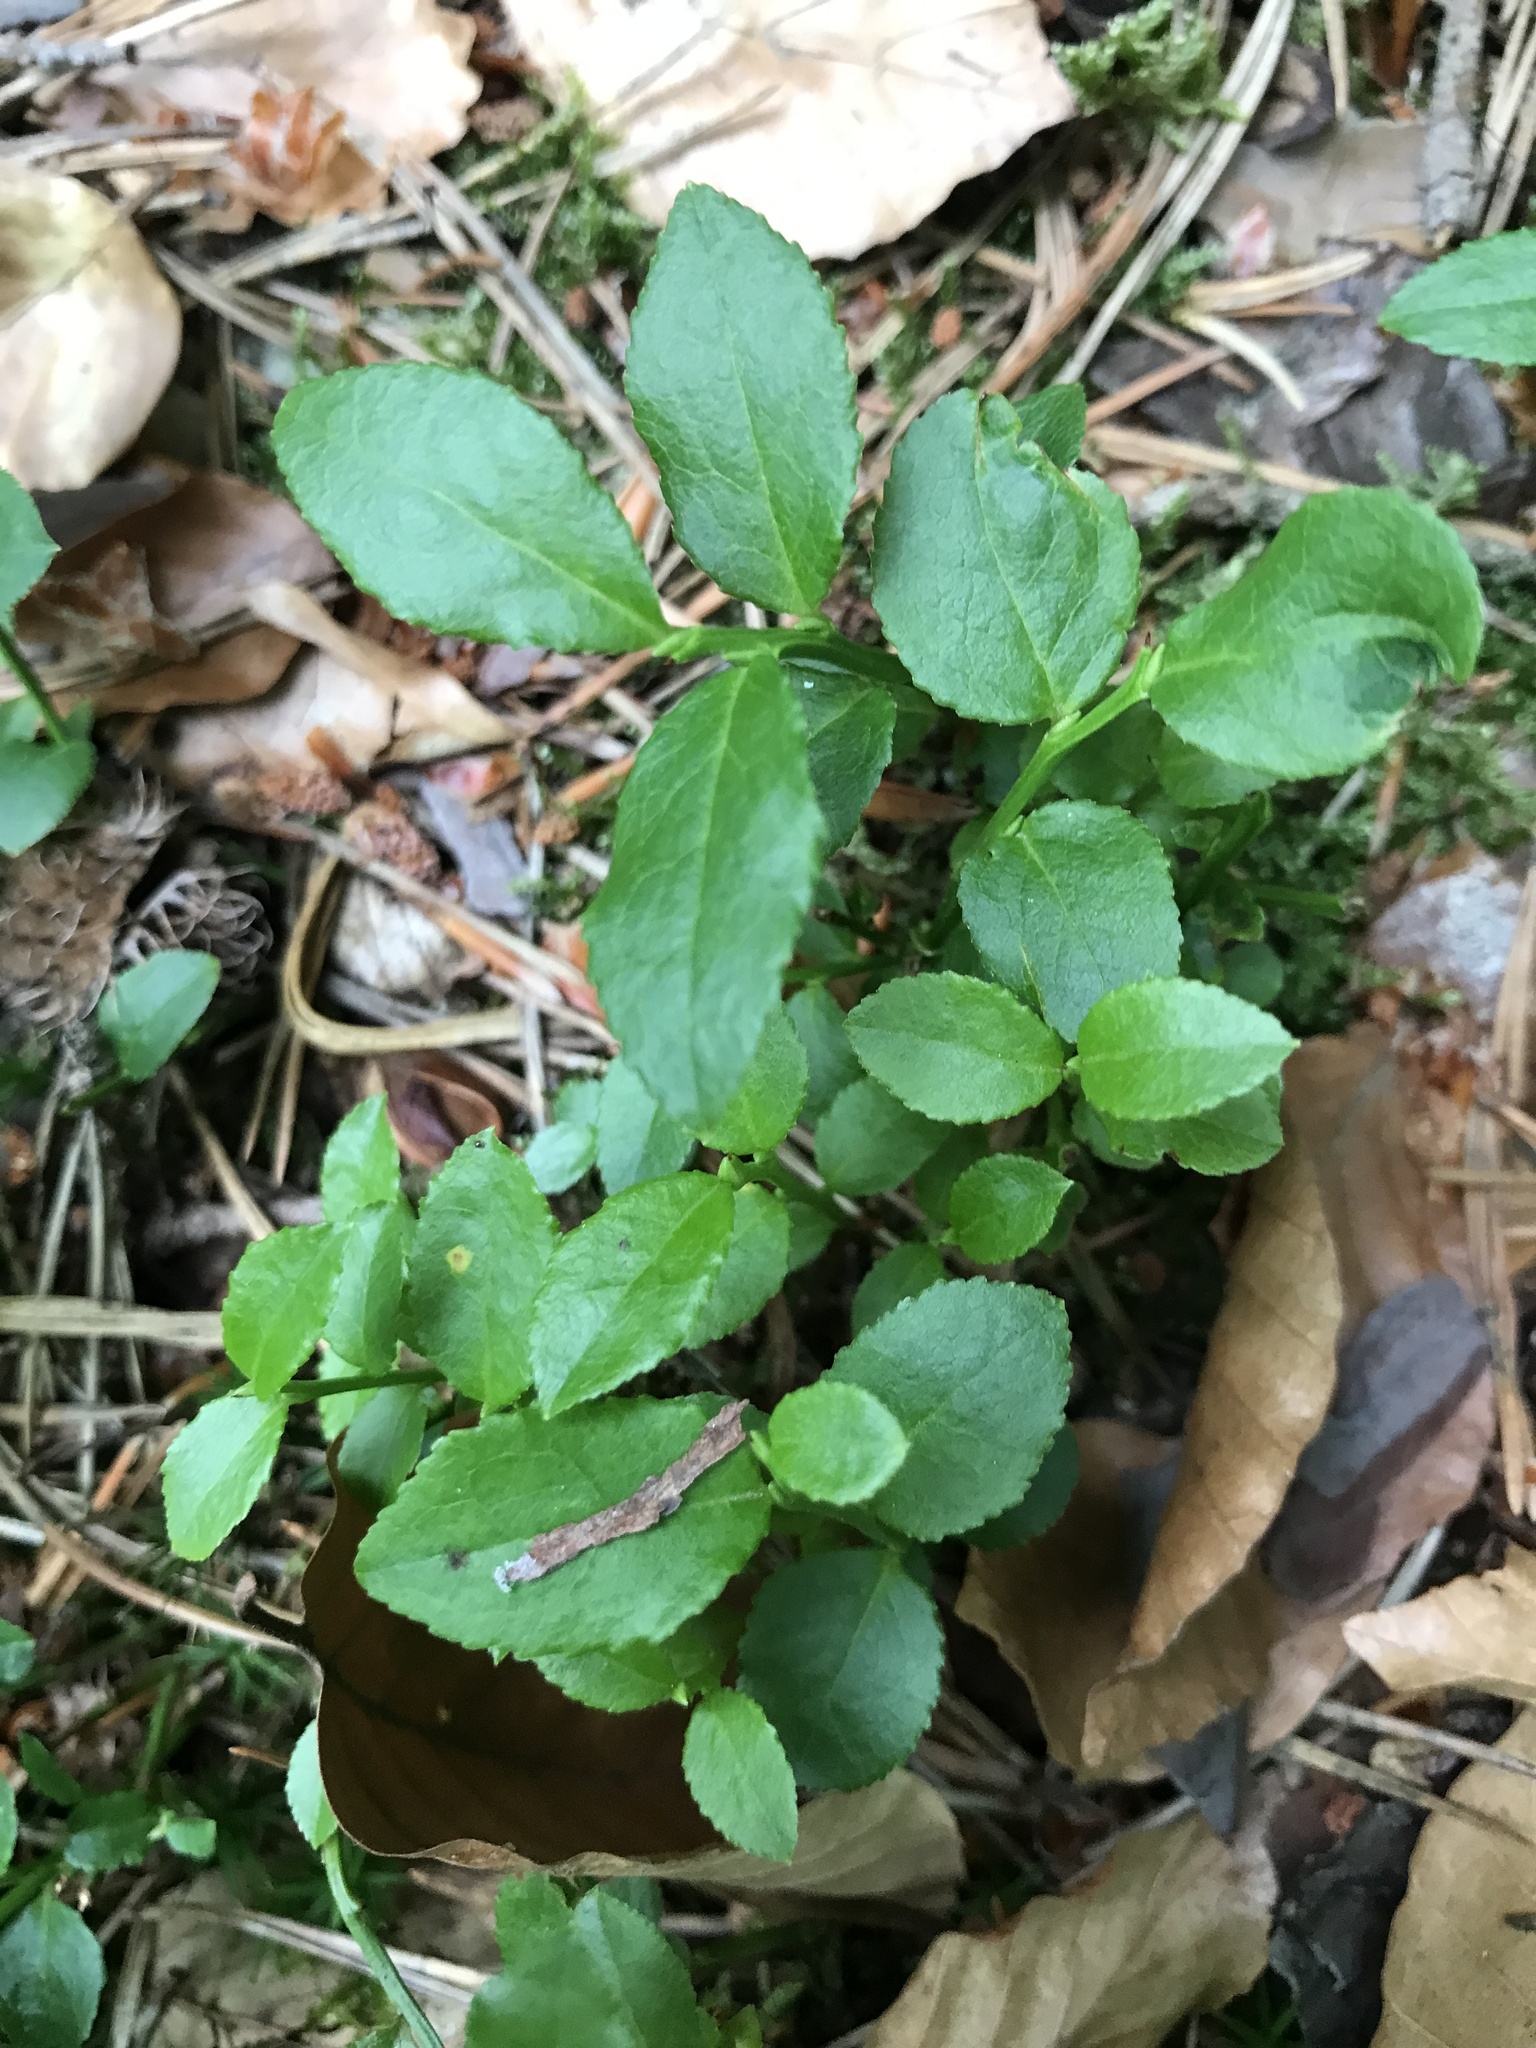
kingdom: Plantae
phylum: Tracheophyta
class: Magnoliopsida
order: Ericales
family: Ericaceae
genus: Vaccinium
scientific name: Vaccinium myrtillus
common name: Bilberry
